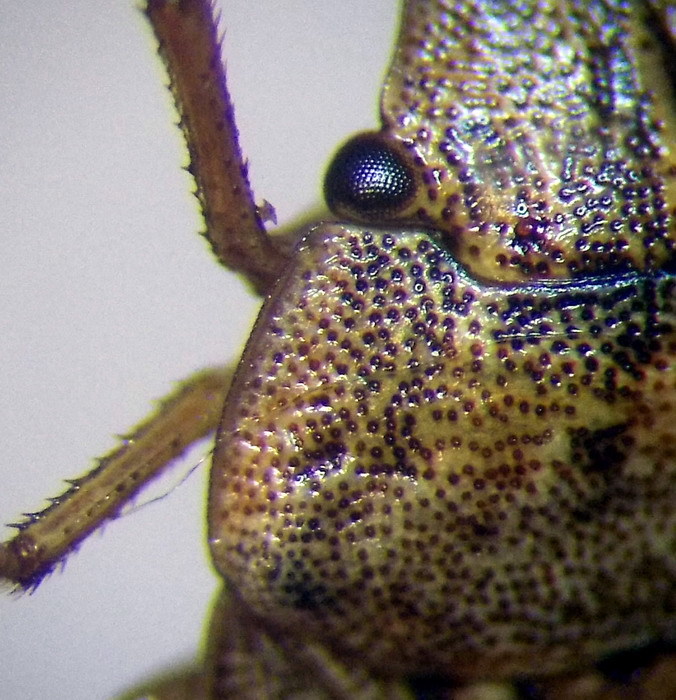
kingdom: Animalia
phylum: Arthropoda
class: Insecta
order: Hemiptera
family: Pentatomidae
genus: Sciocoris
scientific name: Sciocoris cursitans
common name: Sandrunner
